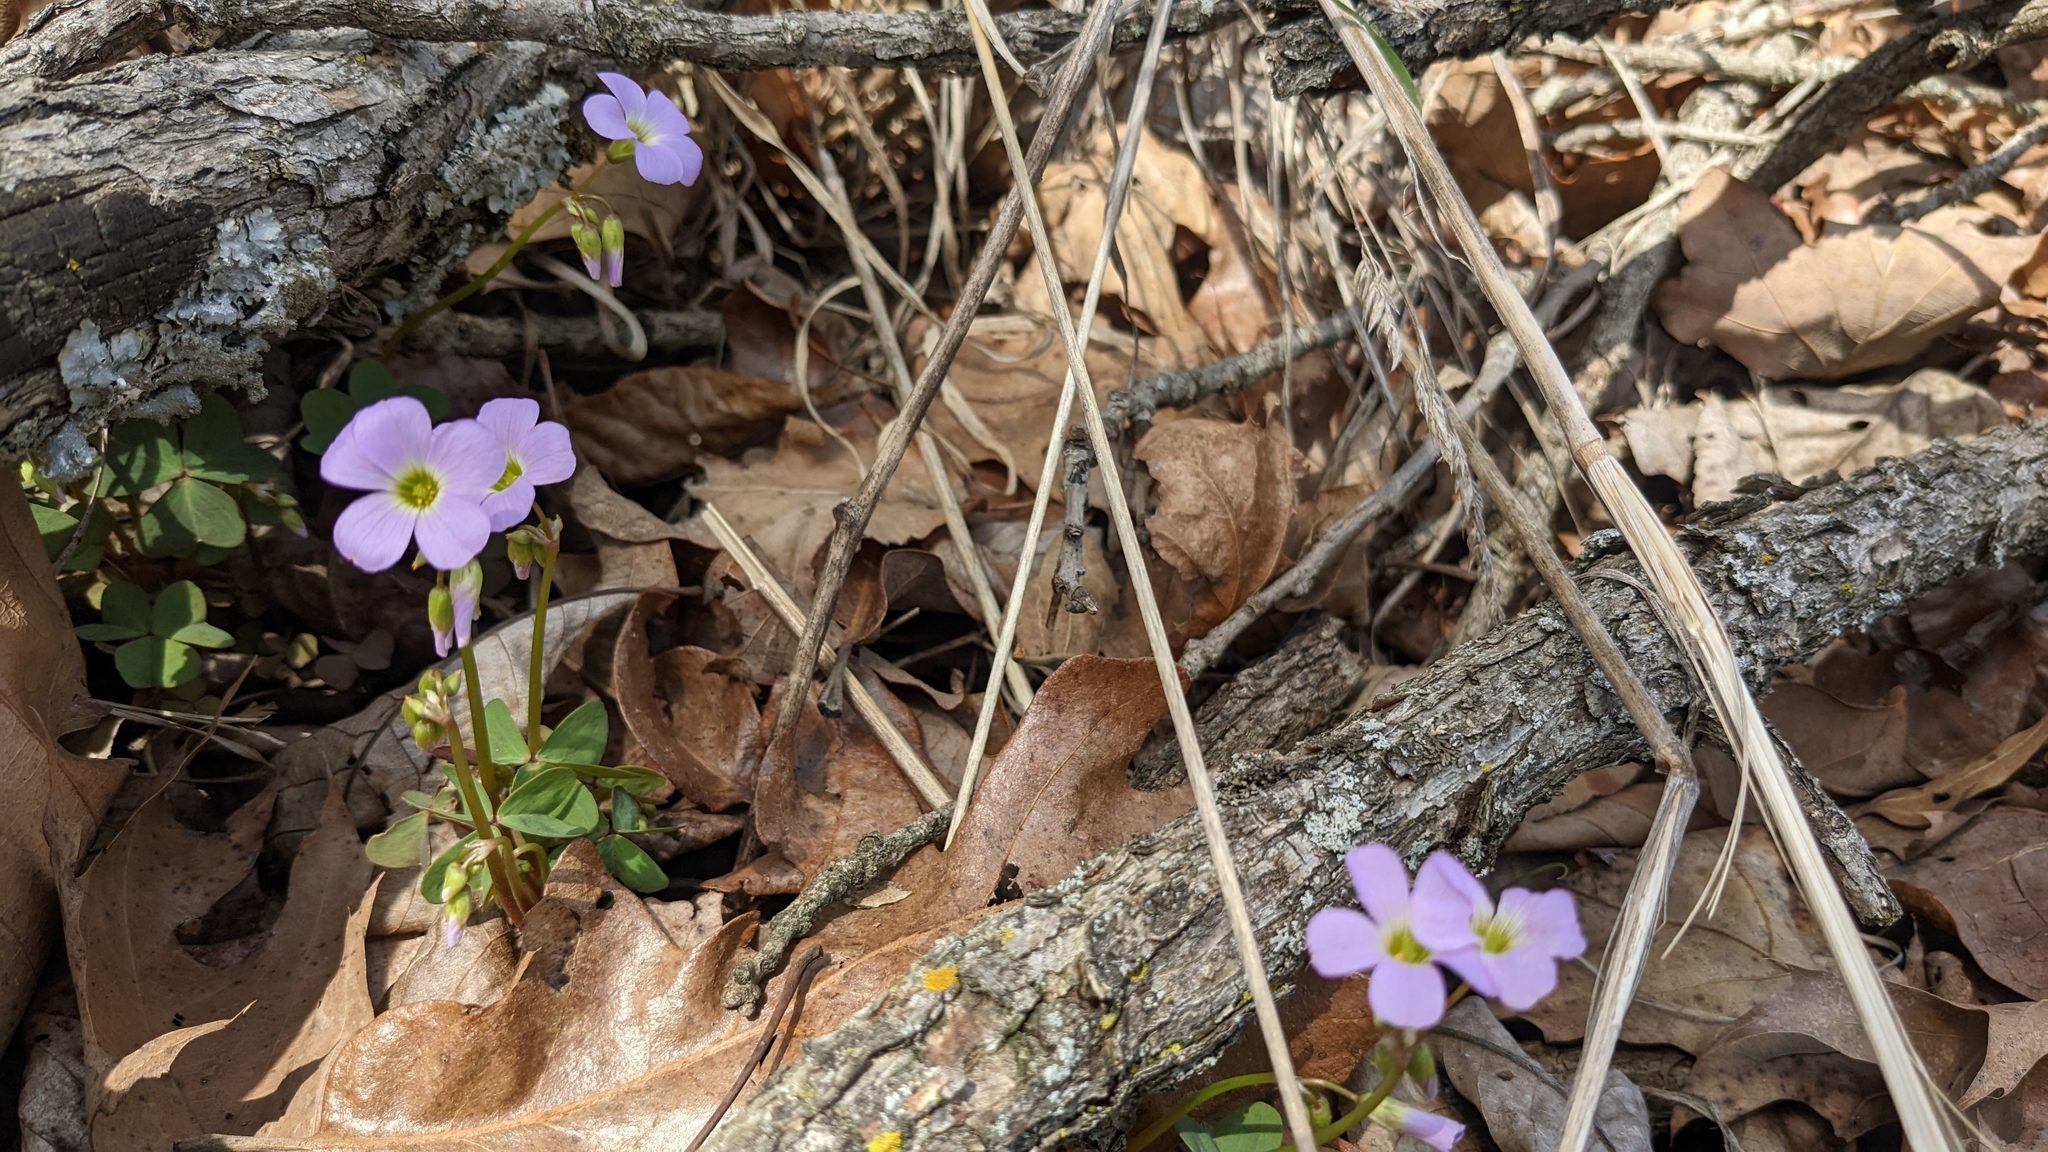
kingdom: Plantae
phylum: Tracheophyta
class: Magnoliopsida
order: Oxalidales
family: Oxalidaceae
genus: Oxalis
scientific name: Oxalis violacea
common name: Violet wood-sorrel
